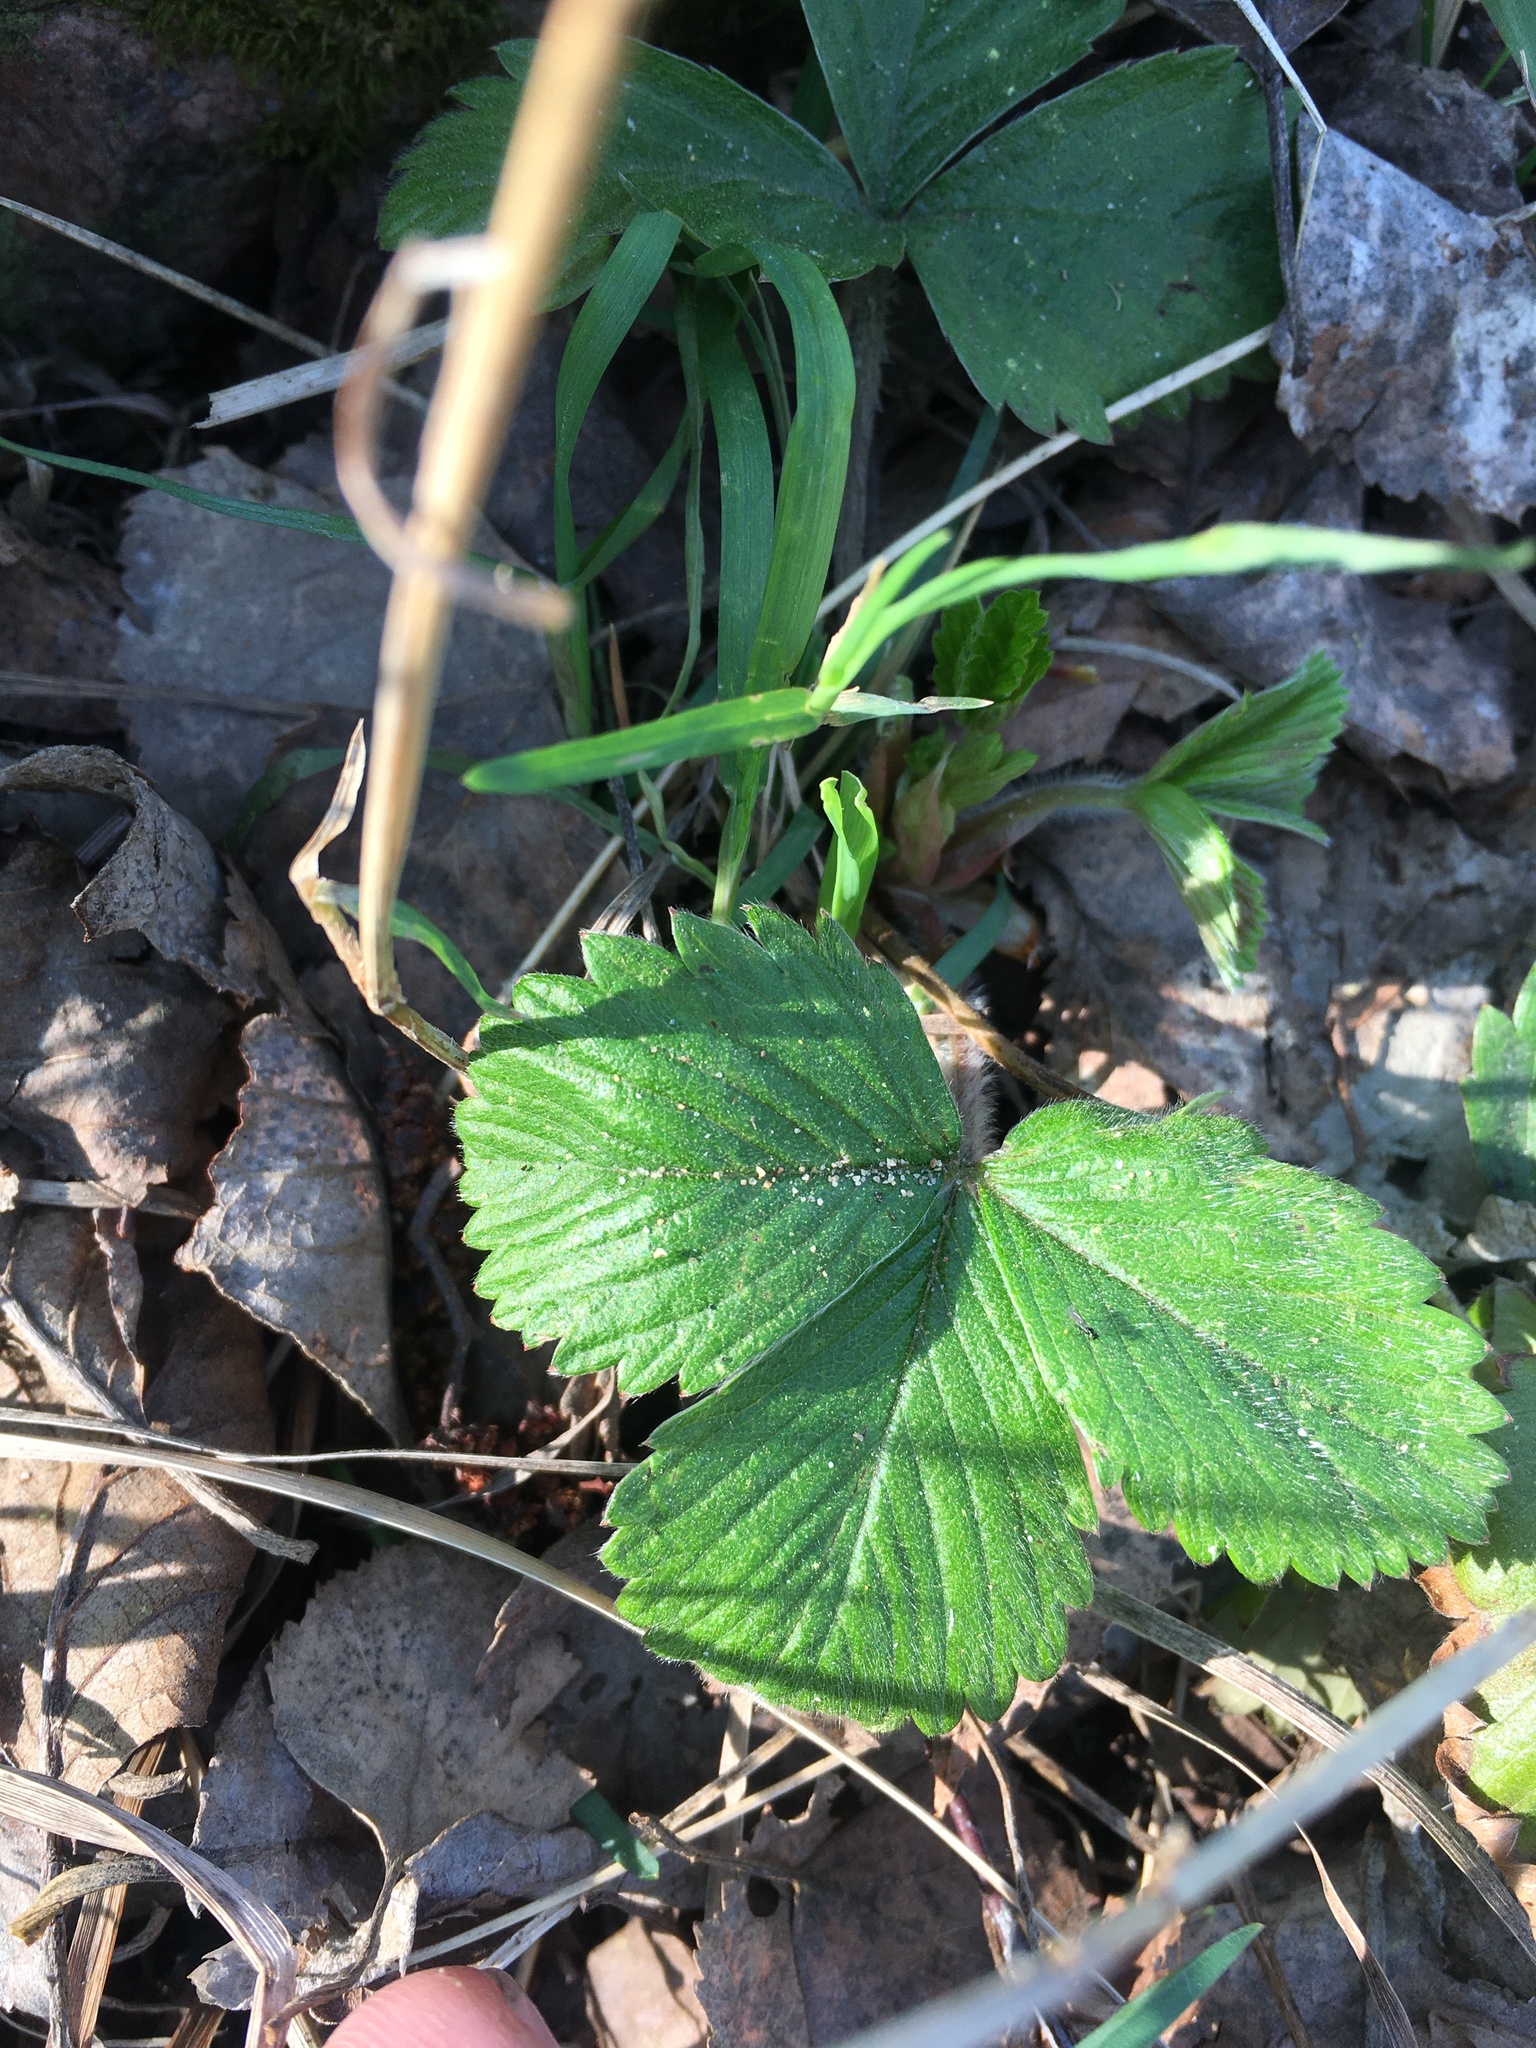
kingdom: Plantae
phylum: Tracheophyta
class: Magnoliopsida
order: Rosales
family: Rosaceae
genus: Fragaria
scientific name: Fragaria vesca
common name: Wild strawberry
